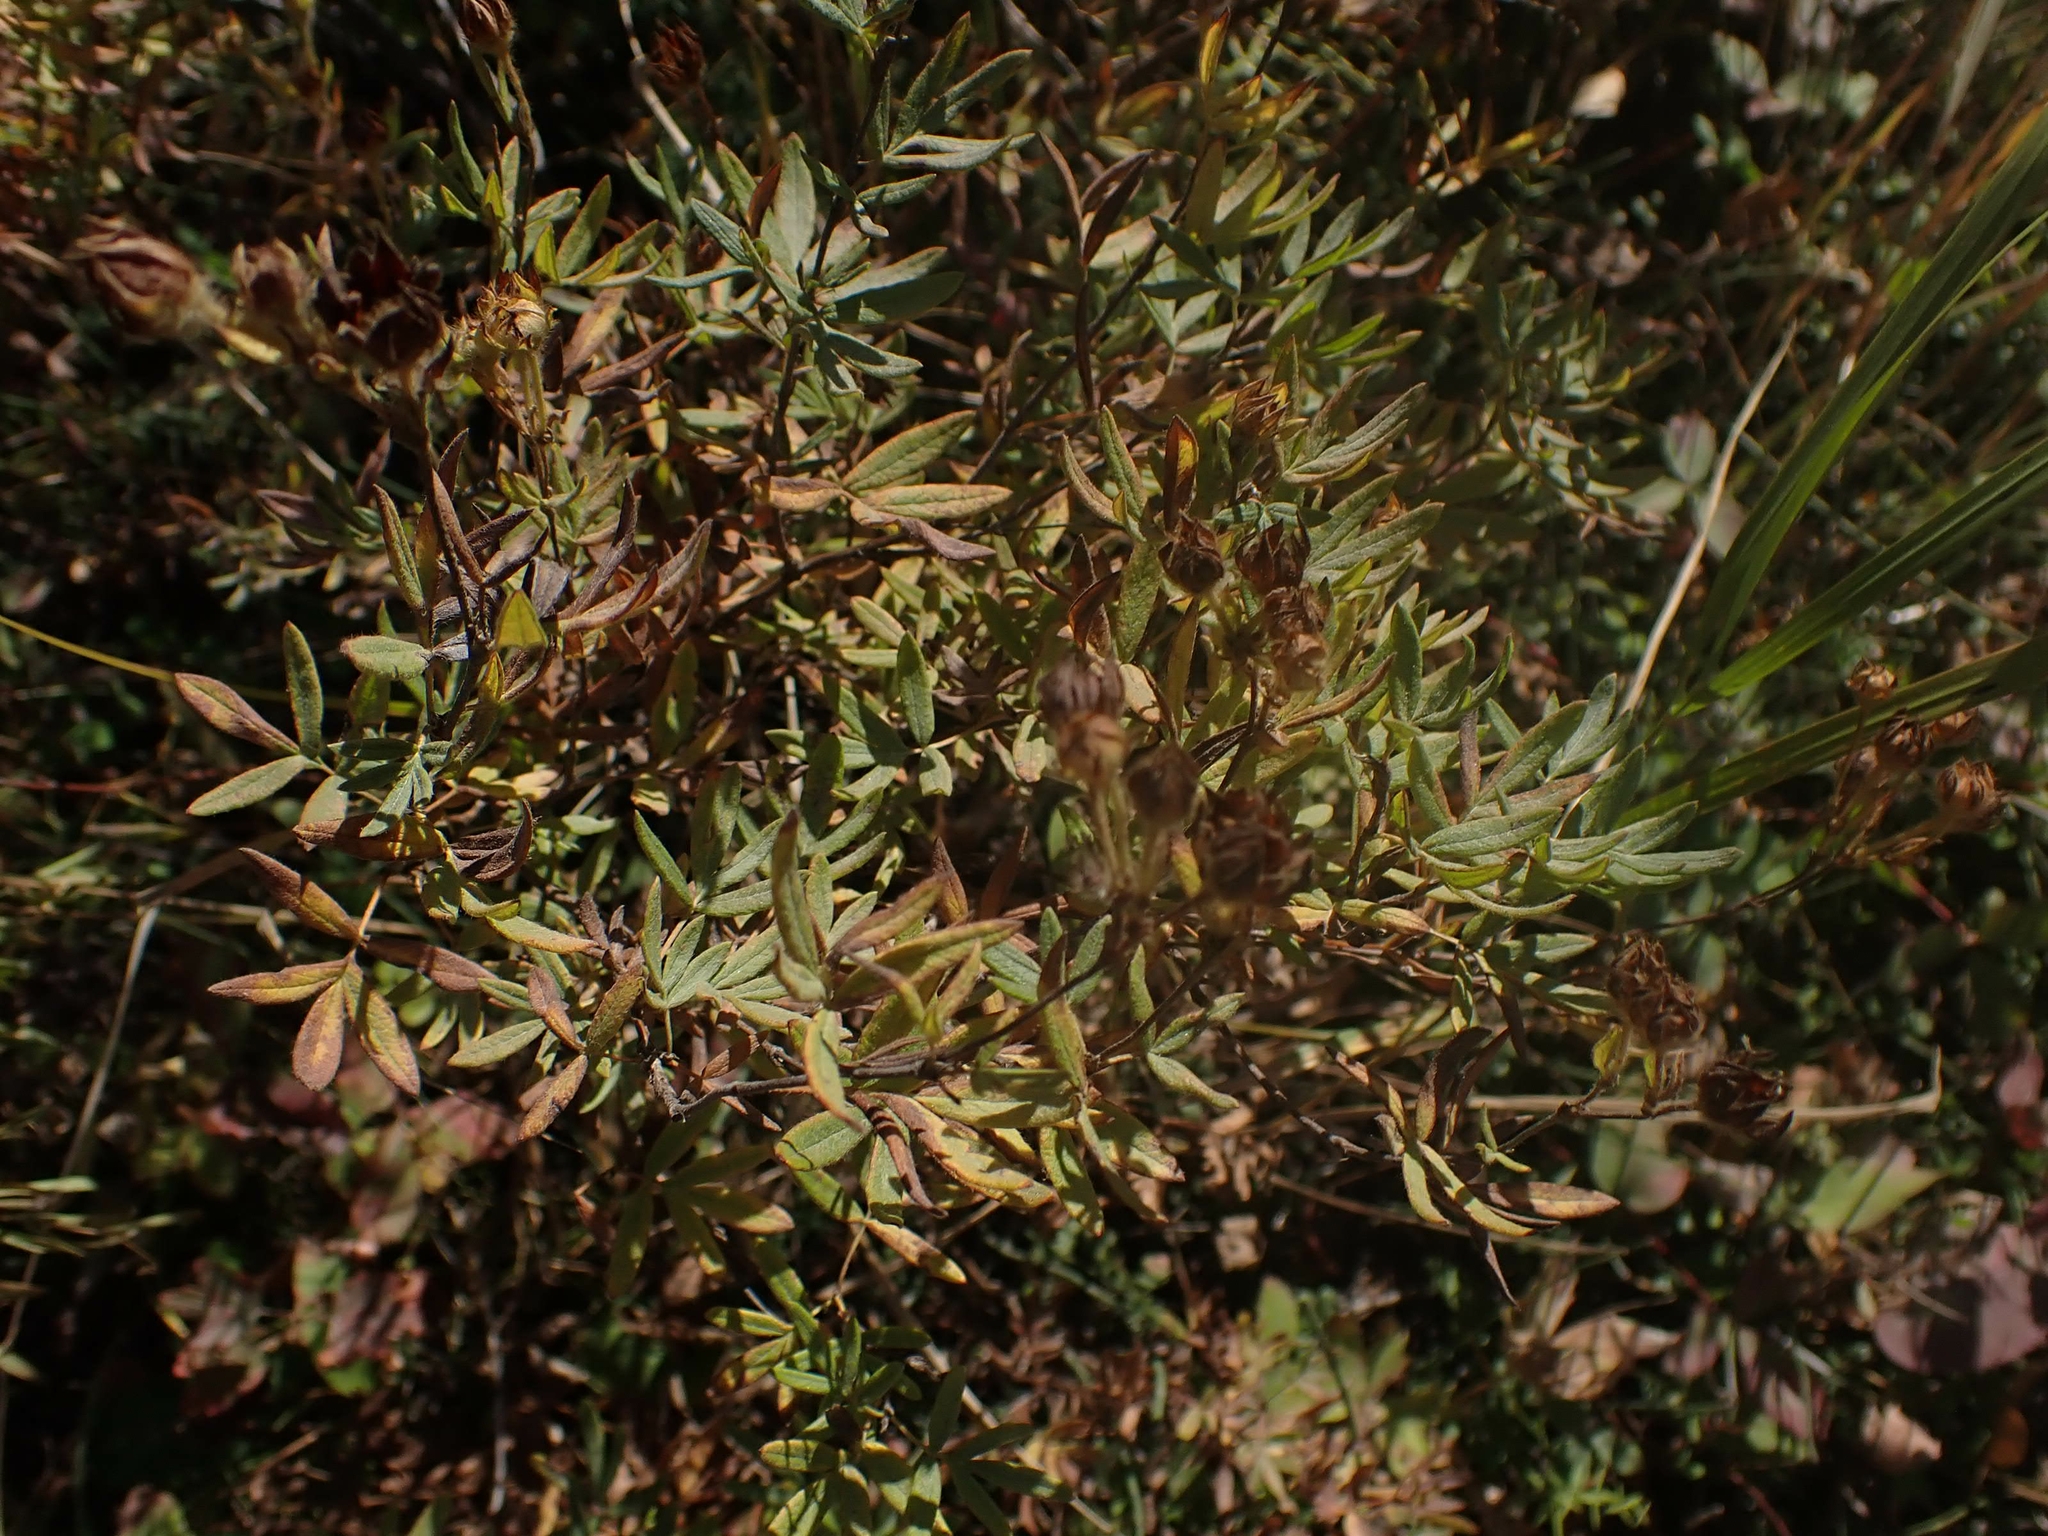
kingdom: Plantae
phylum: Tracheophyta
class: Magnoliopsida
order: Rosales
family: Rosaceae
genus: Dasiphora
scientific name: Dasiphora fruticosa
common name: Shrubby cinquefoil
